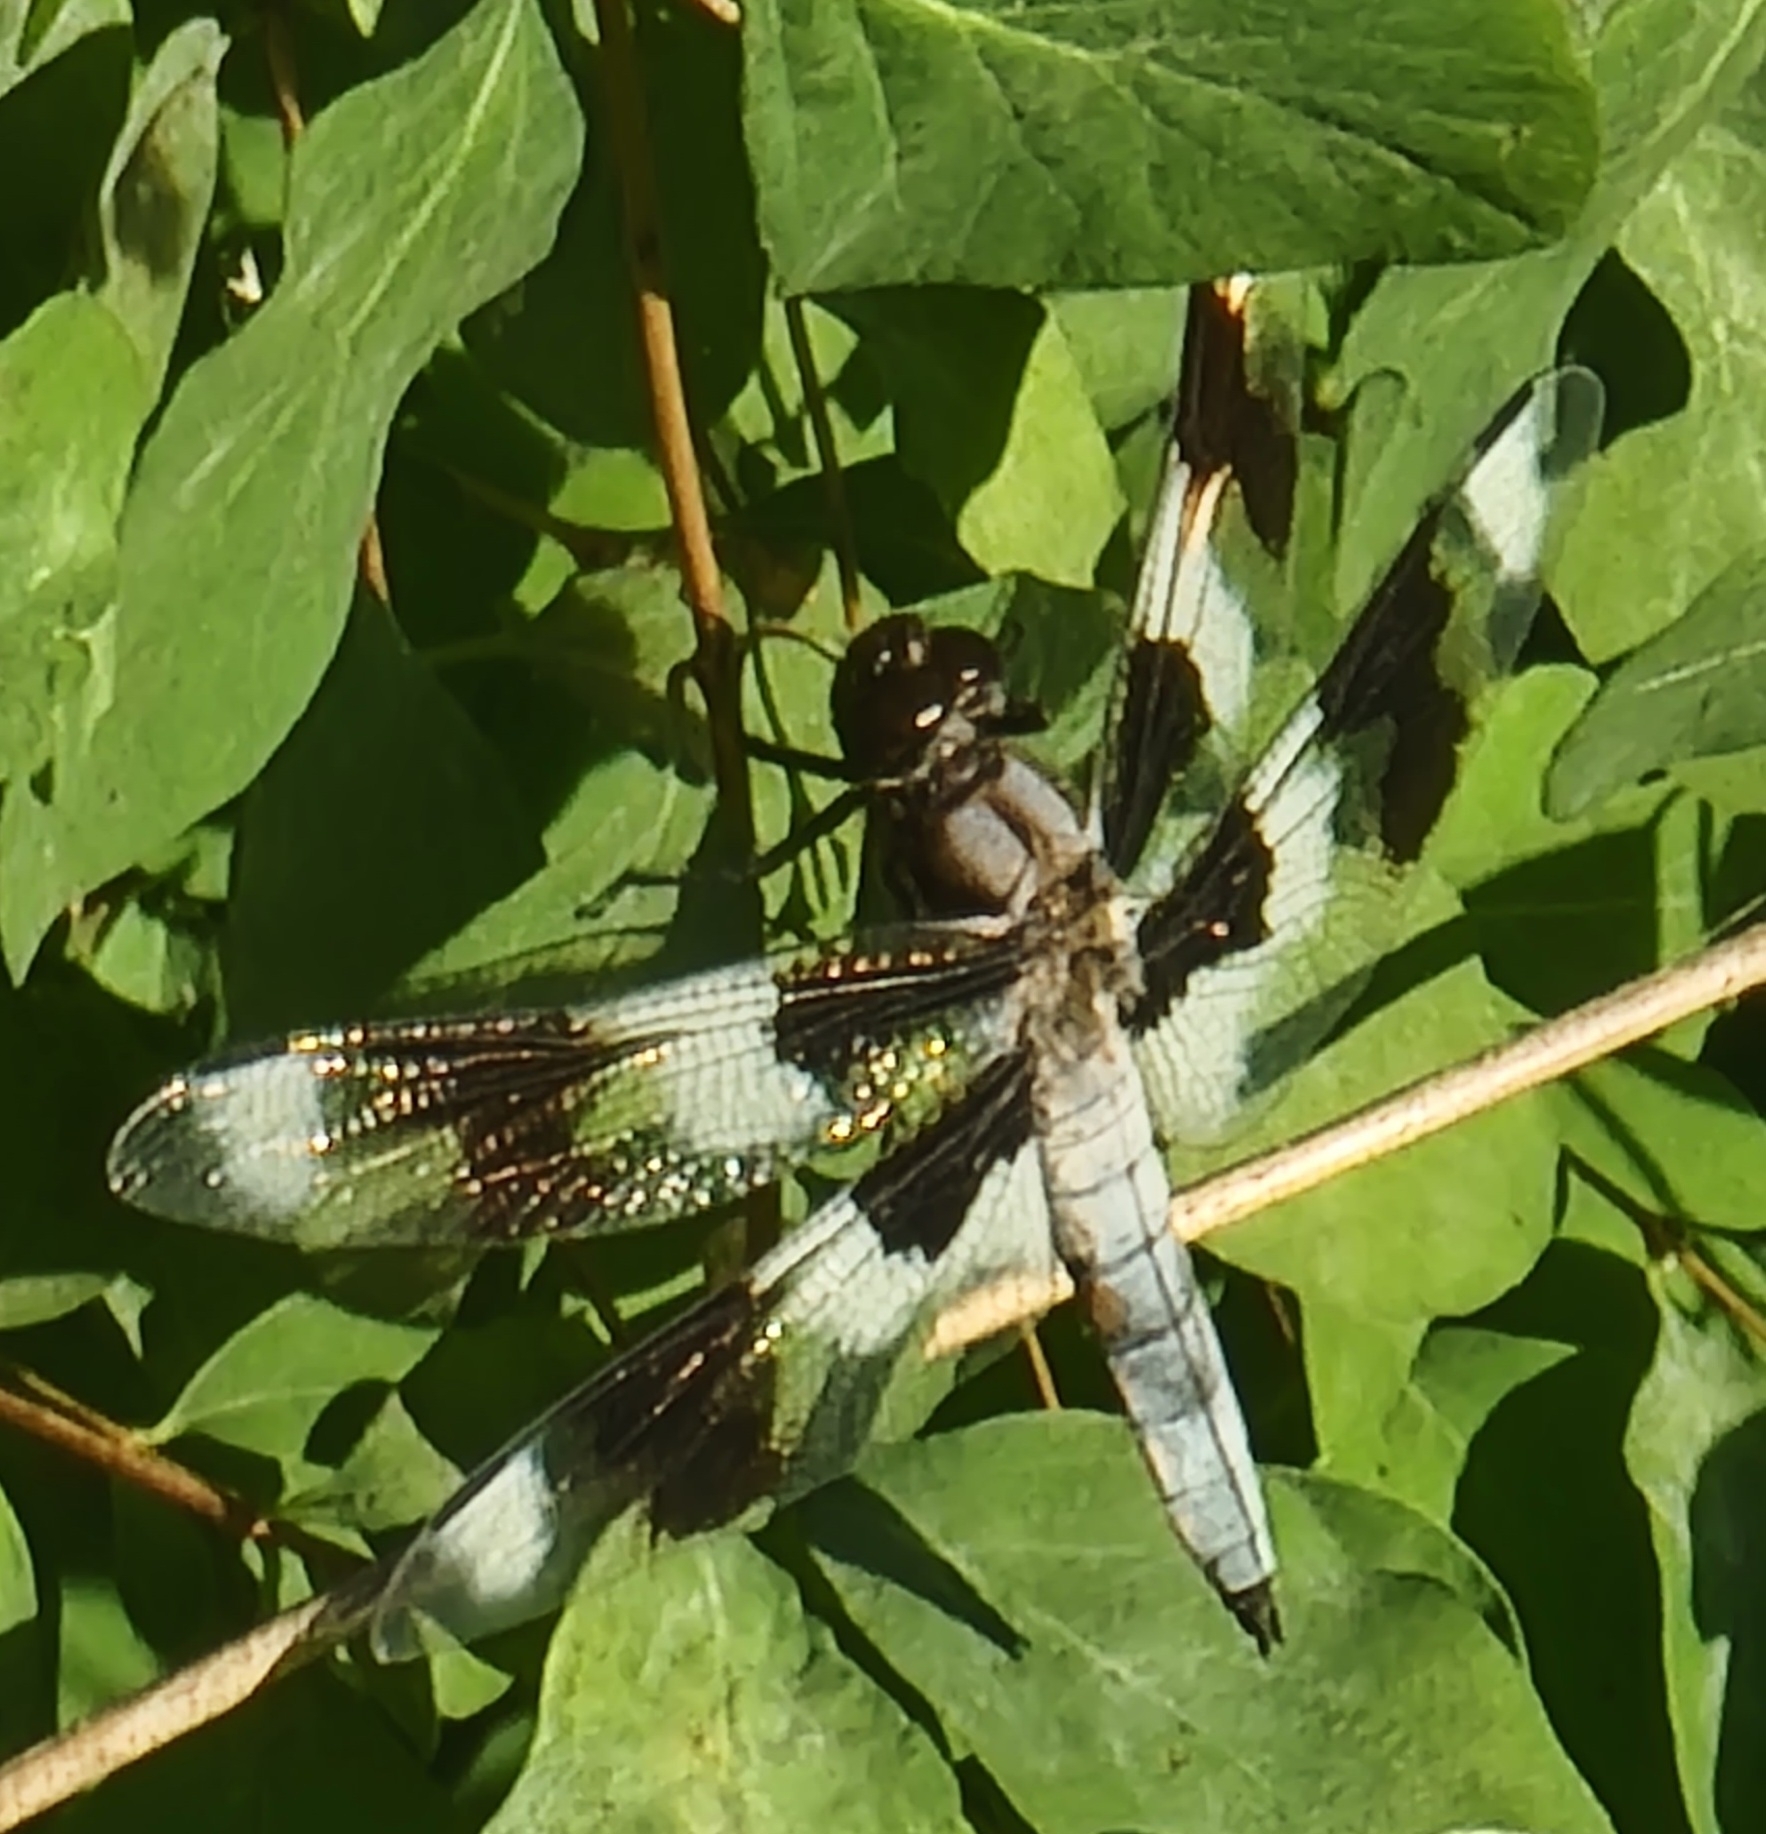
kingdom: Animalia
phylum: Arthropoda
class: Insecta
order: Odonata
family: Libellulidae
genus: Libellula
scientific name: Libellula forensis
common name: Eight-spotted skimmer
